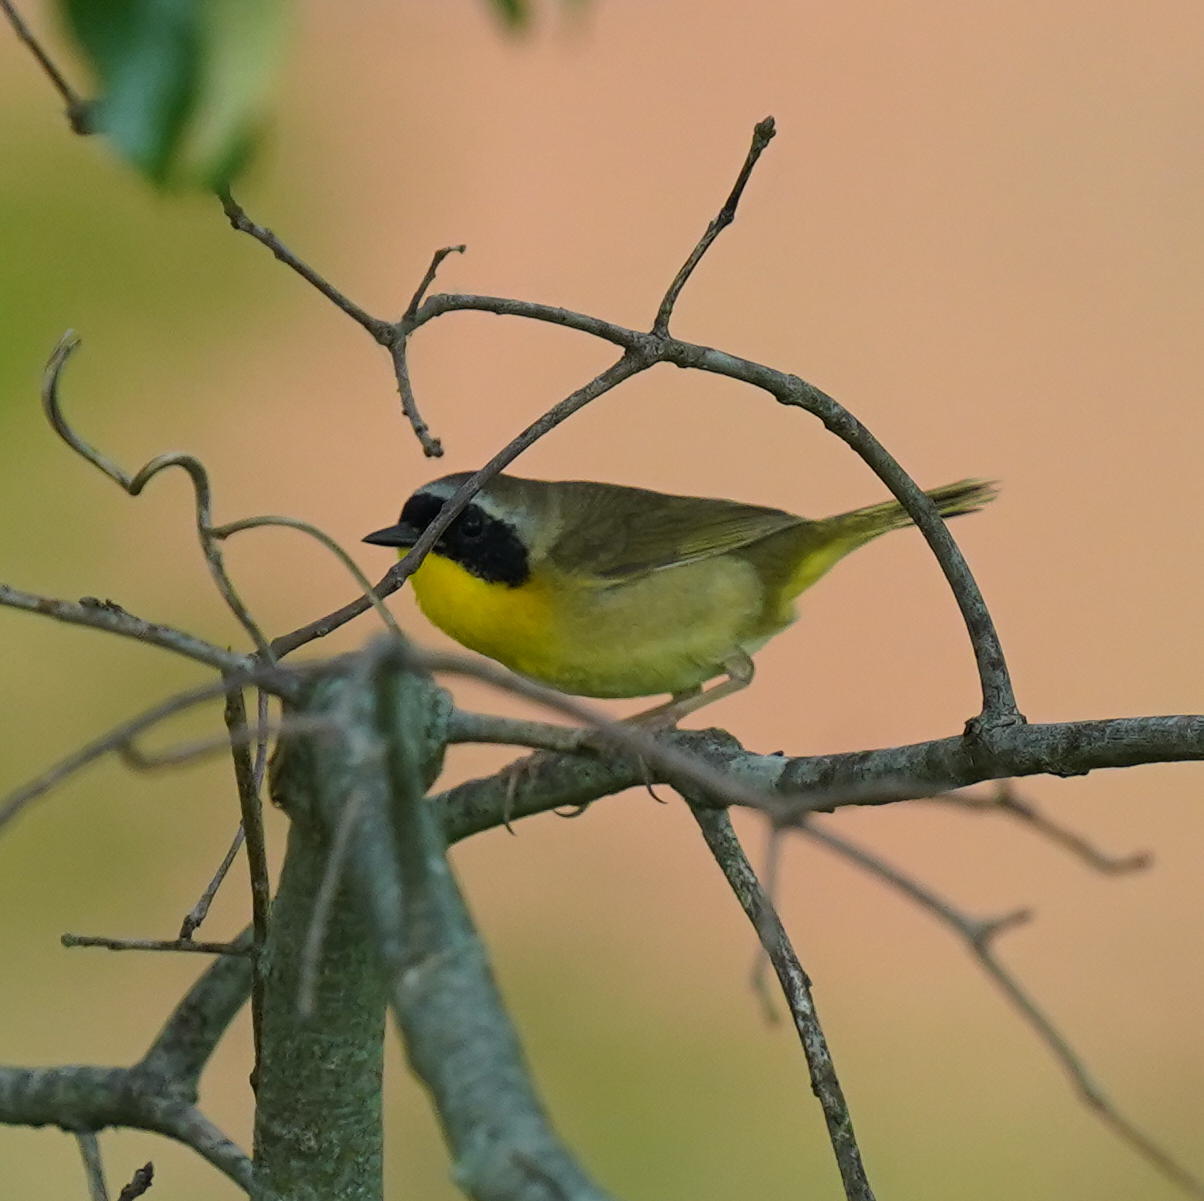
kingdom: Animalia
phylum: Chordata
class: Aves
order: Passeriformes
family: Parulidae
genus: Geothlypis
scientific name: Geothlypis trichas
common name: Common yellowthroat
